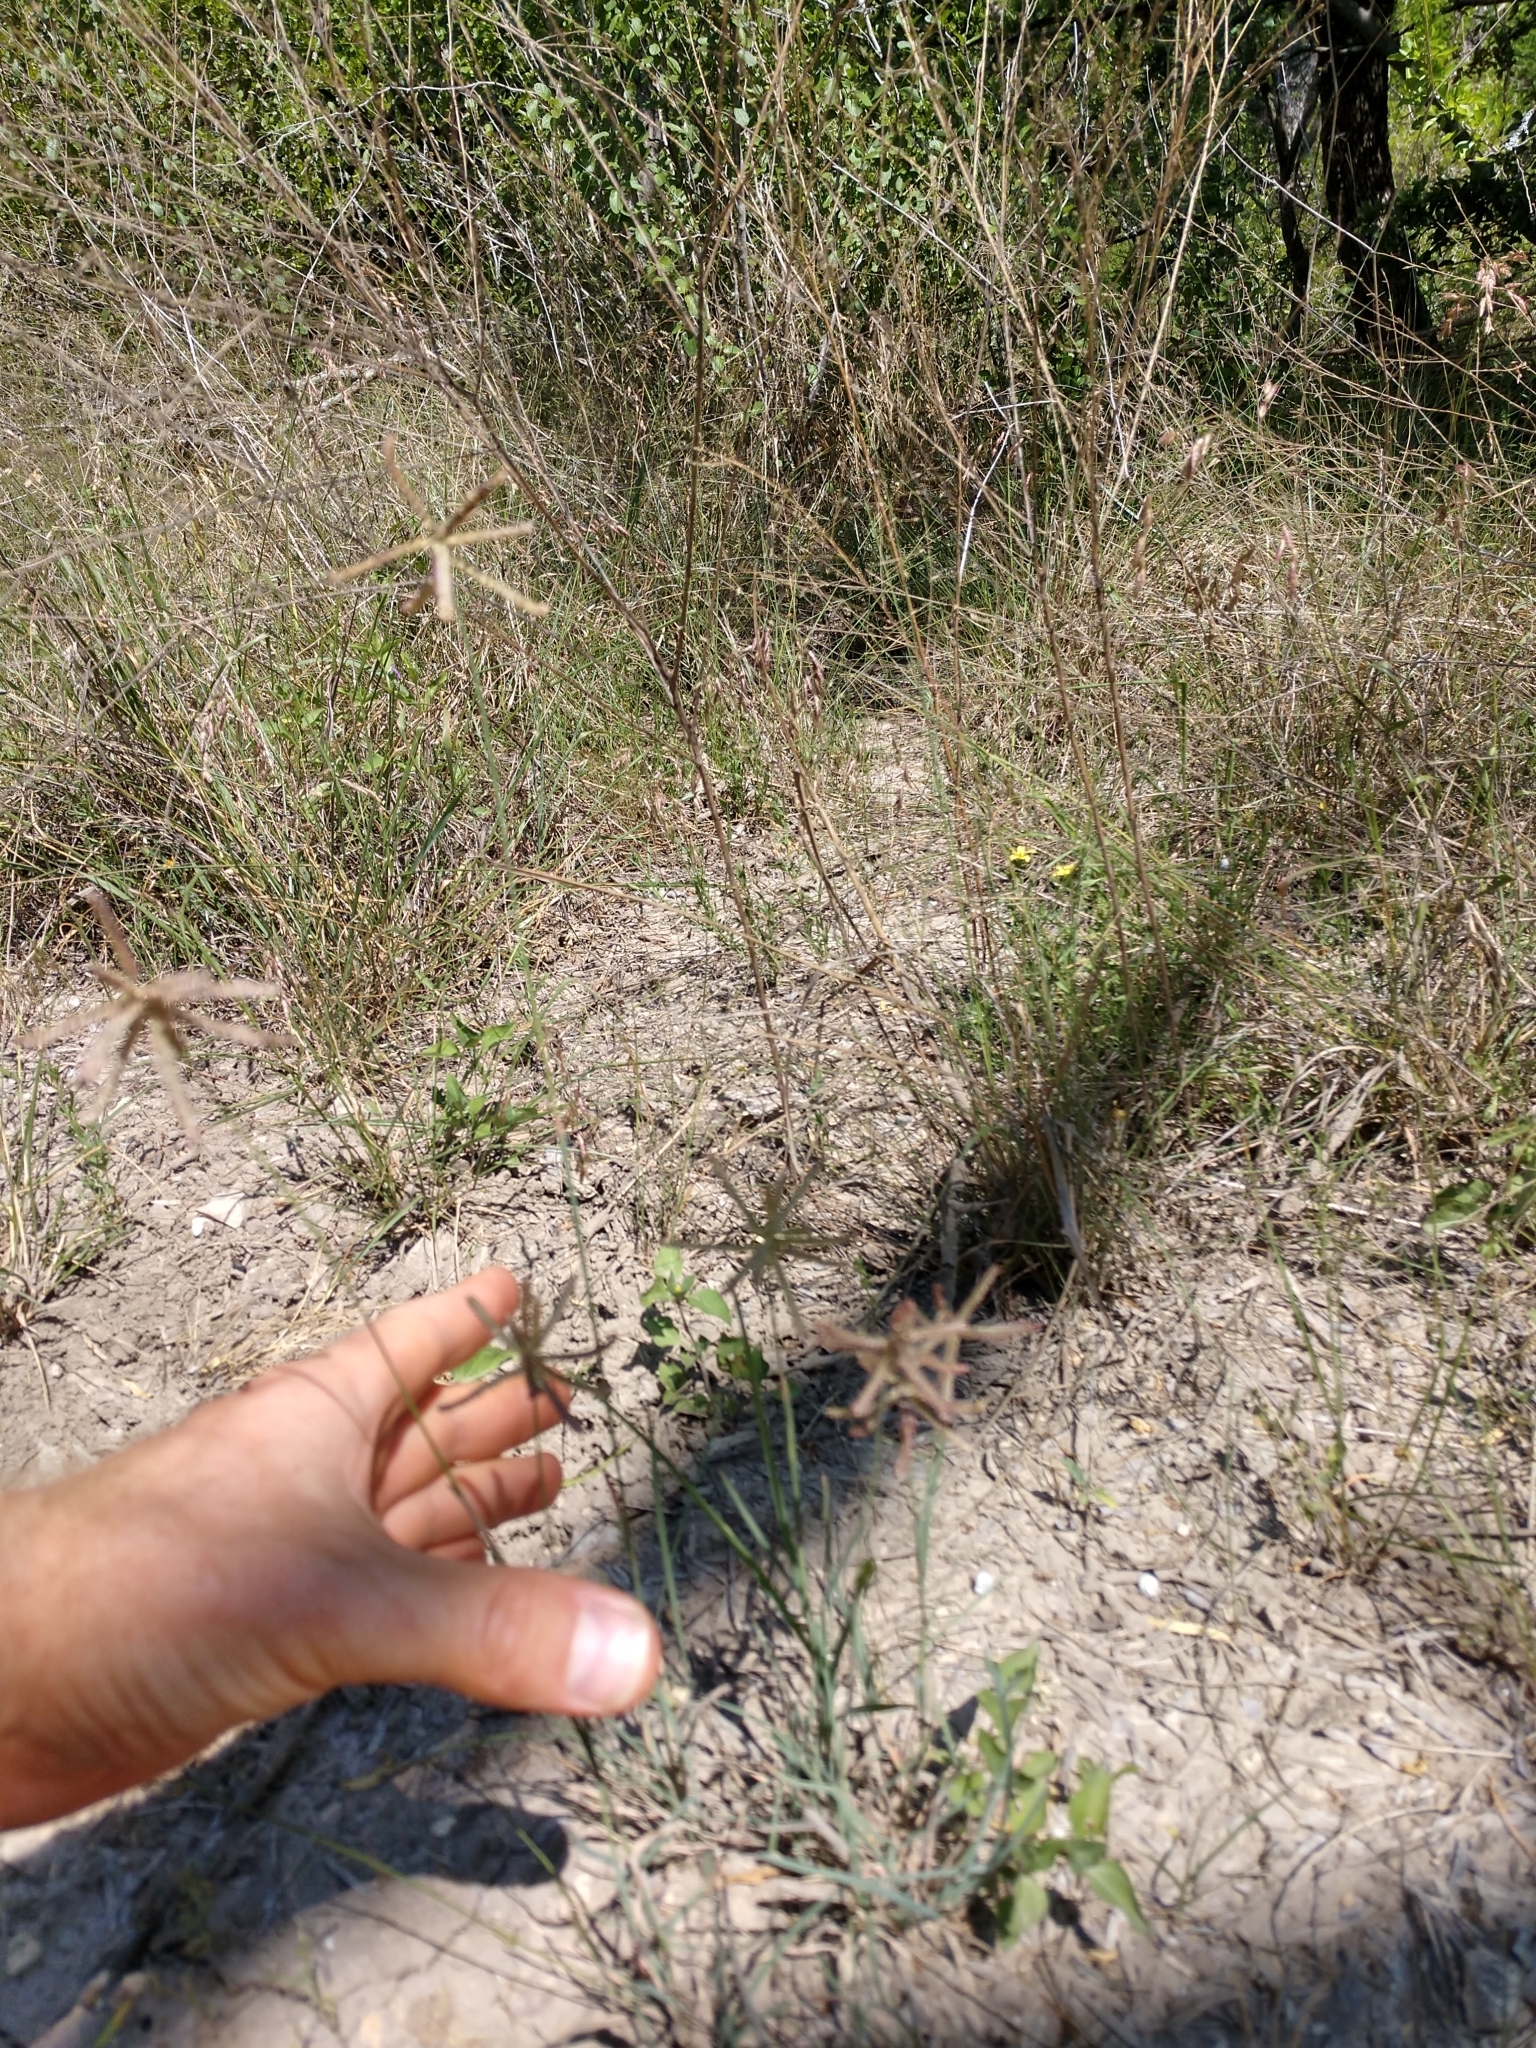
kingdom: Plantae
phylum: Tracheophyta
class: Liliopsida
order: Poales
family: Poaceae
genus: Chloris
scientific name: Chloris cucullata
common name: Hooded windmill grass
